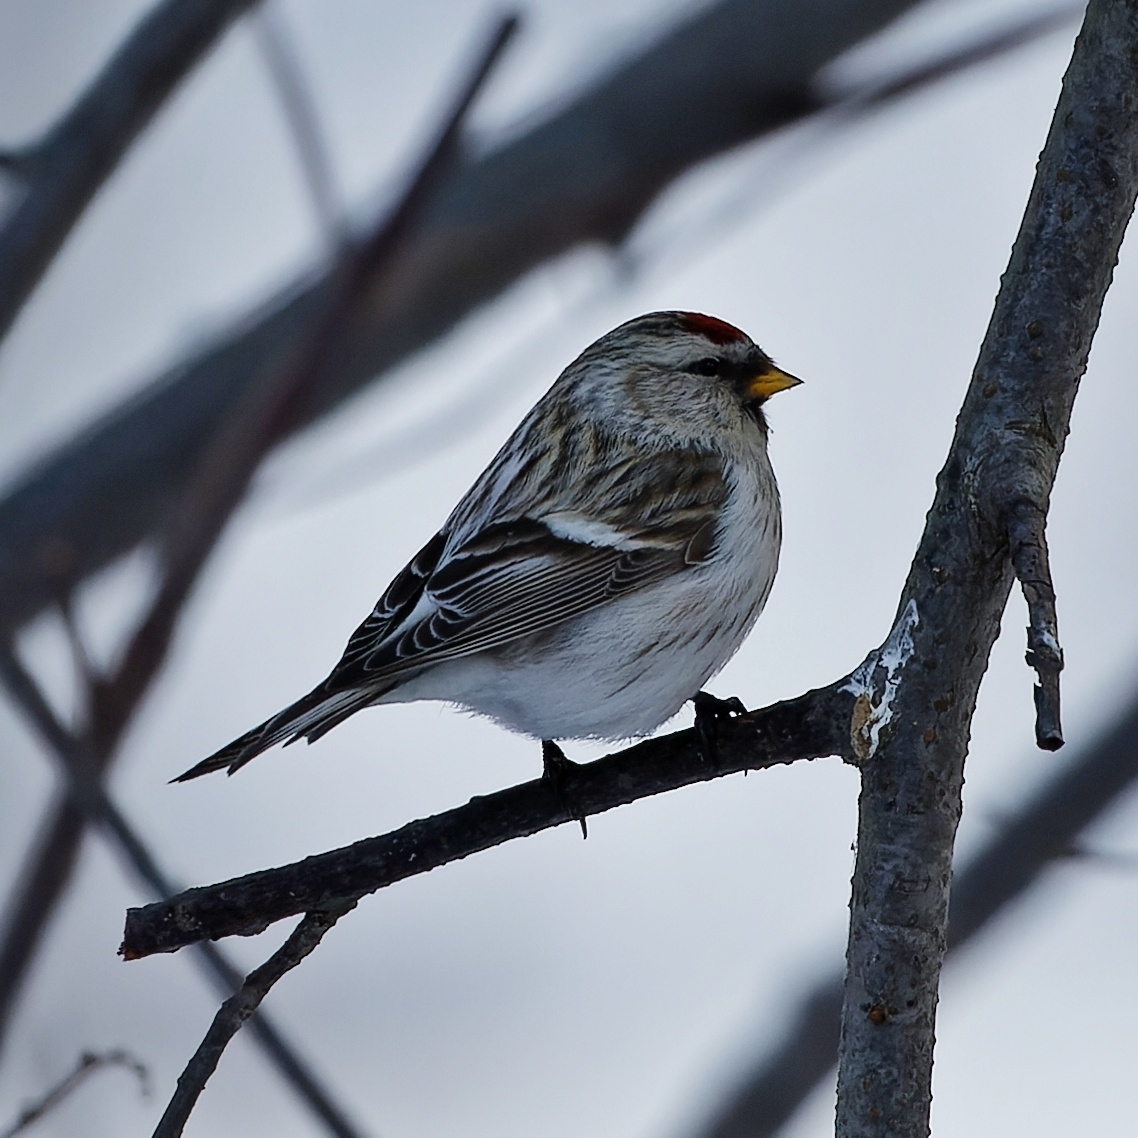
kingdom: Animalia
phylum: Chordata
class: Aves
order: Passeriformes
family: Fringillidae
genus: Acanthis
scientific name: Acanthis hornemanni
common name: Arctic redpoll
